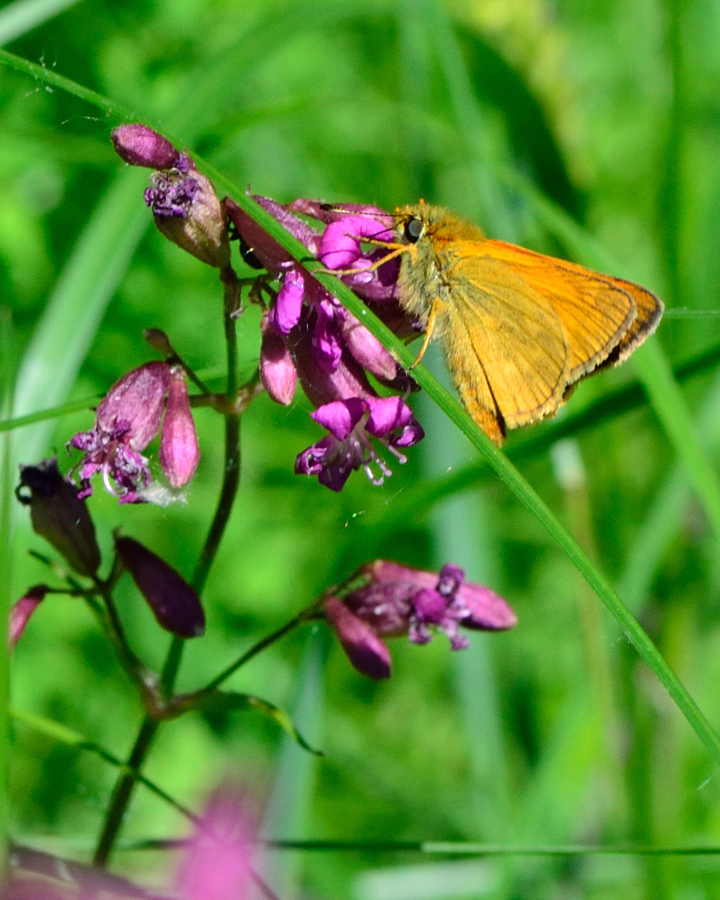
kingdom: Animalia
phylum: Arthropoda
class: Insecta
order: Lepidoptera
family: Hesperiidae
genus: Ochlodes
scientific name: Ochlodes venata
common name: Large skipper
